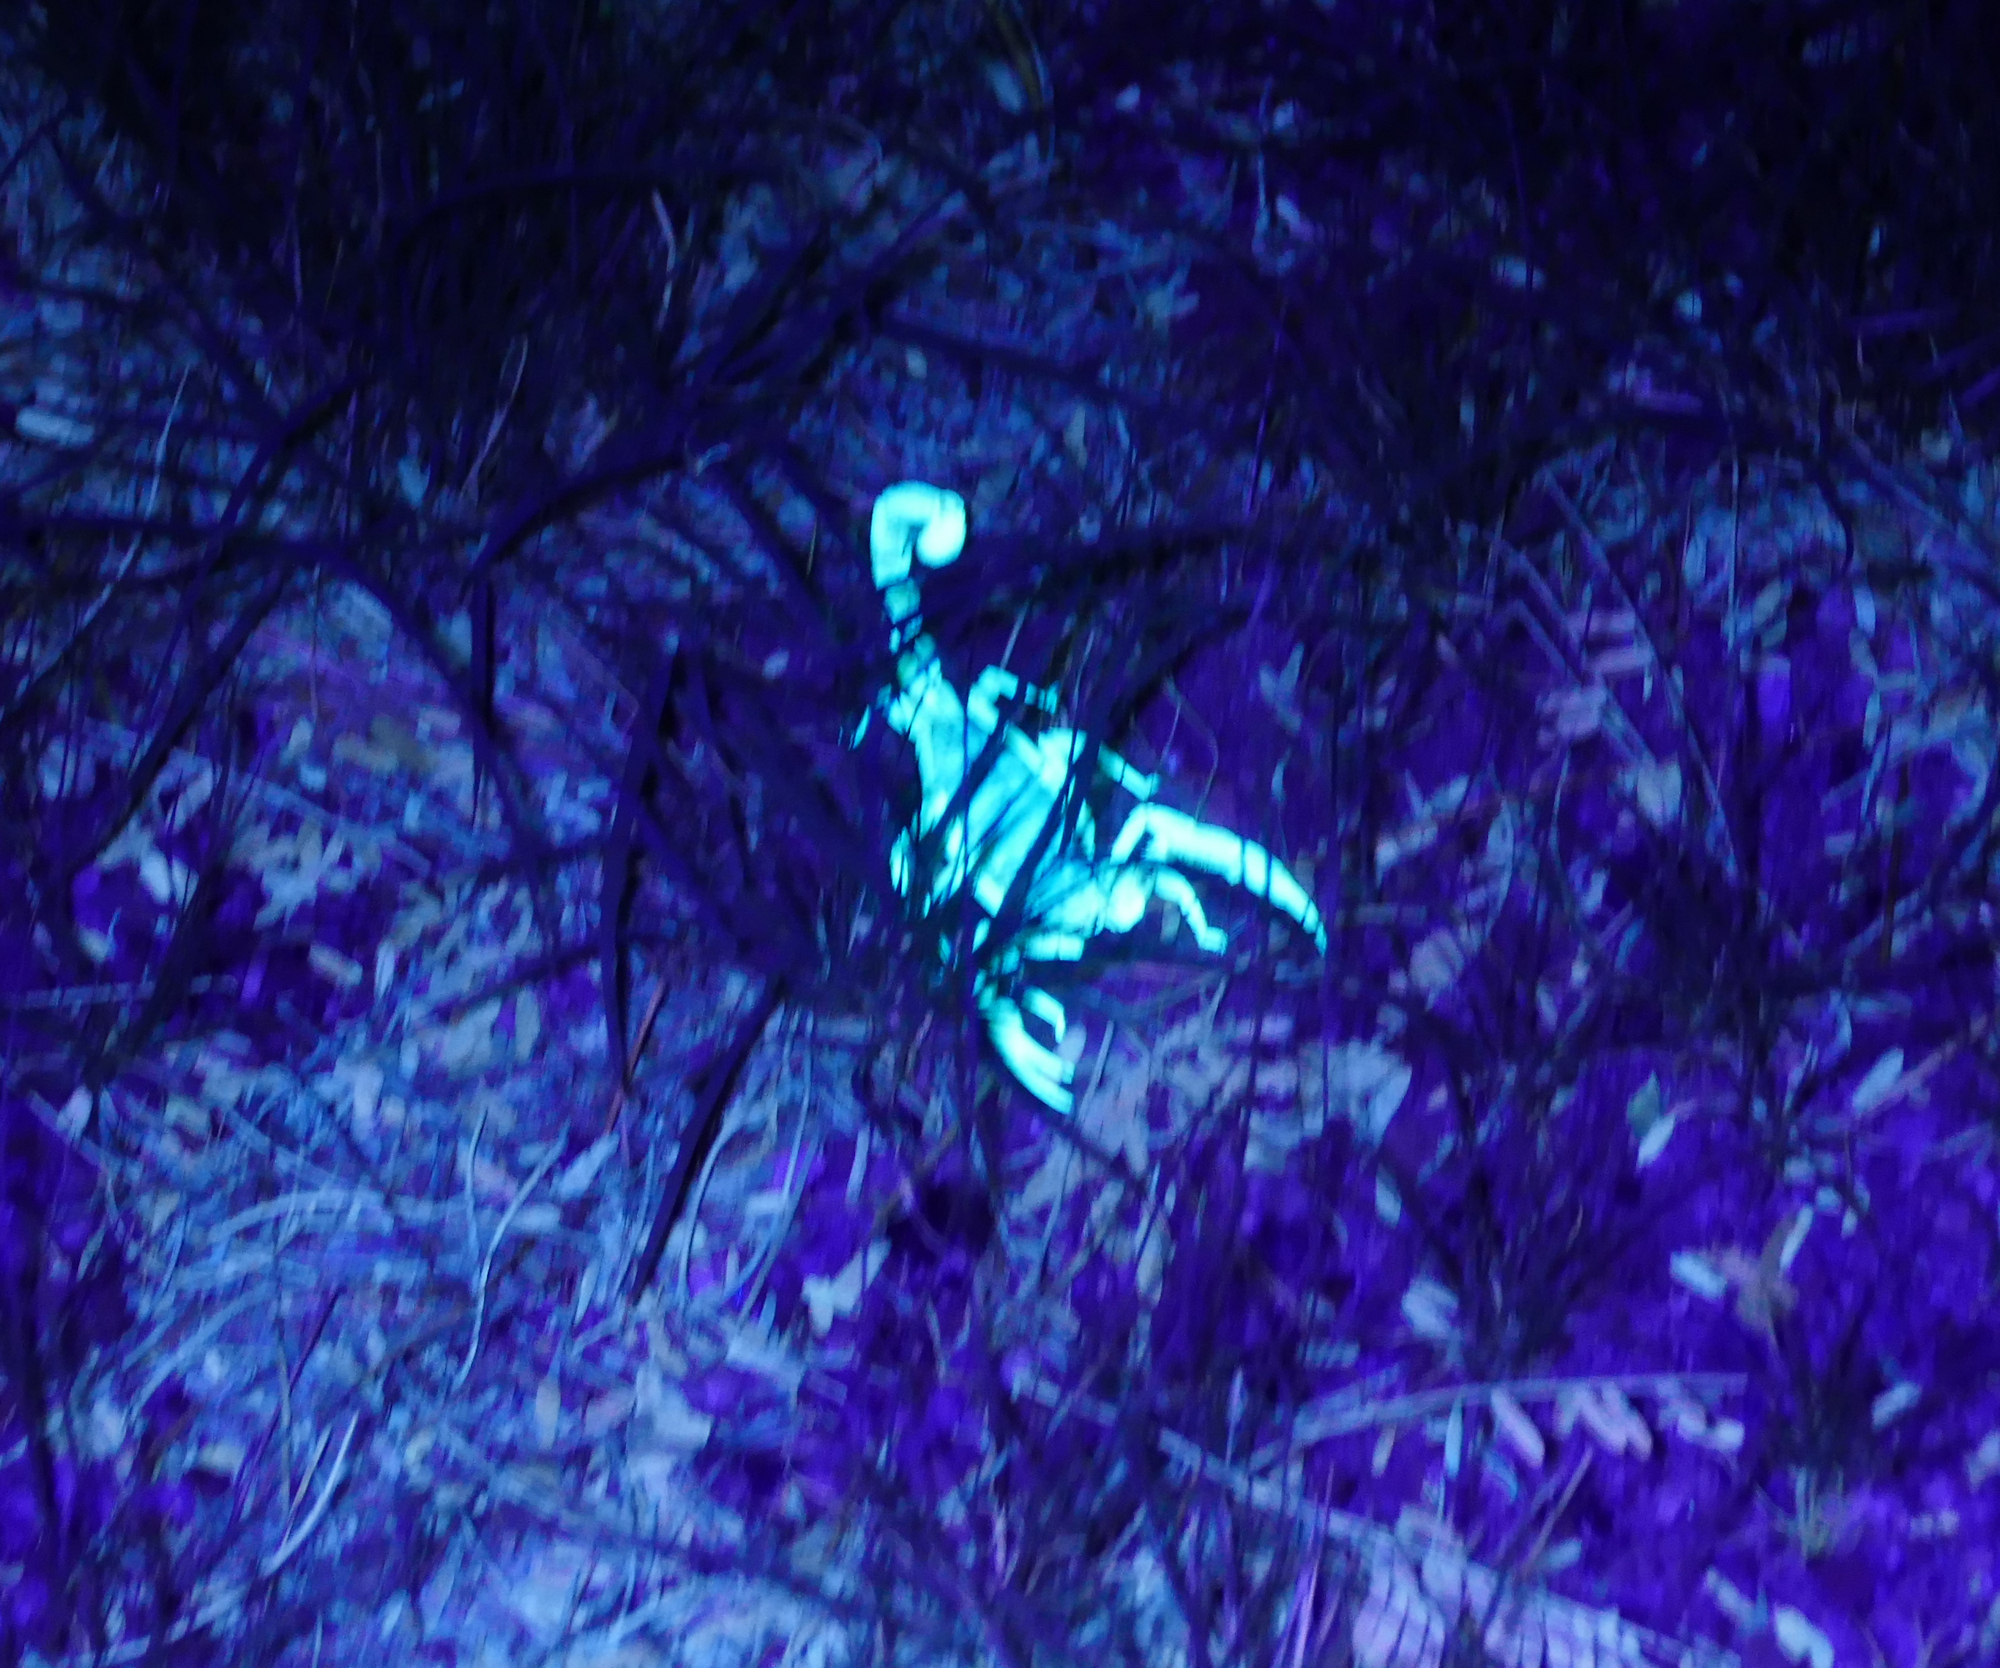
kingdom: Animalia
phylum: Arthropoda
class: Arachnida
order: Scorpiones
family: Hadruridae
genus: Hadrurus
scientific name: Hadrurus arizonensis
